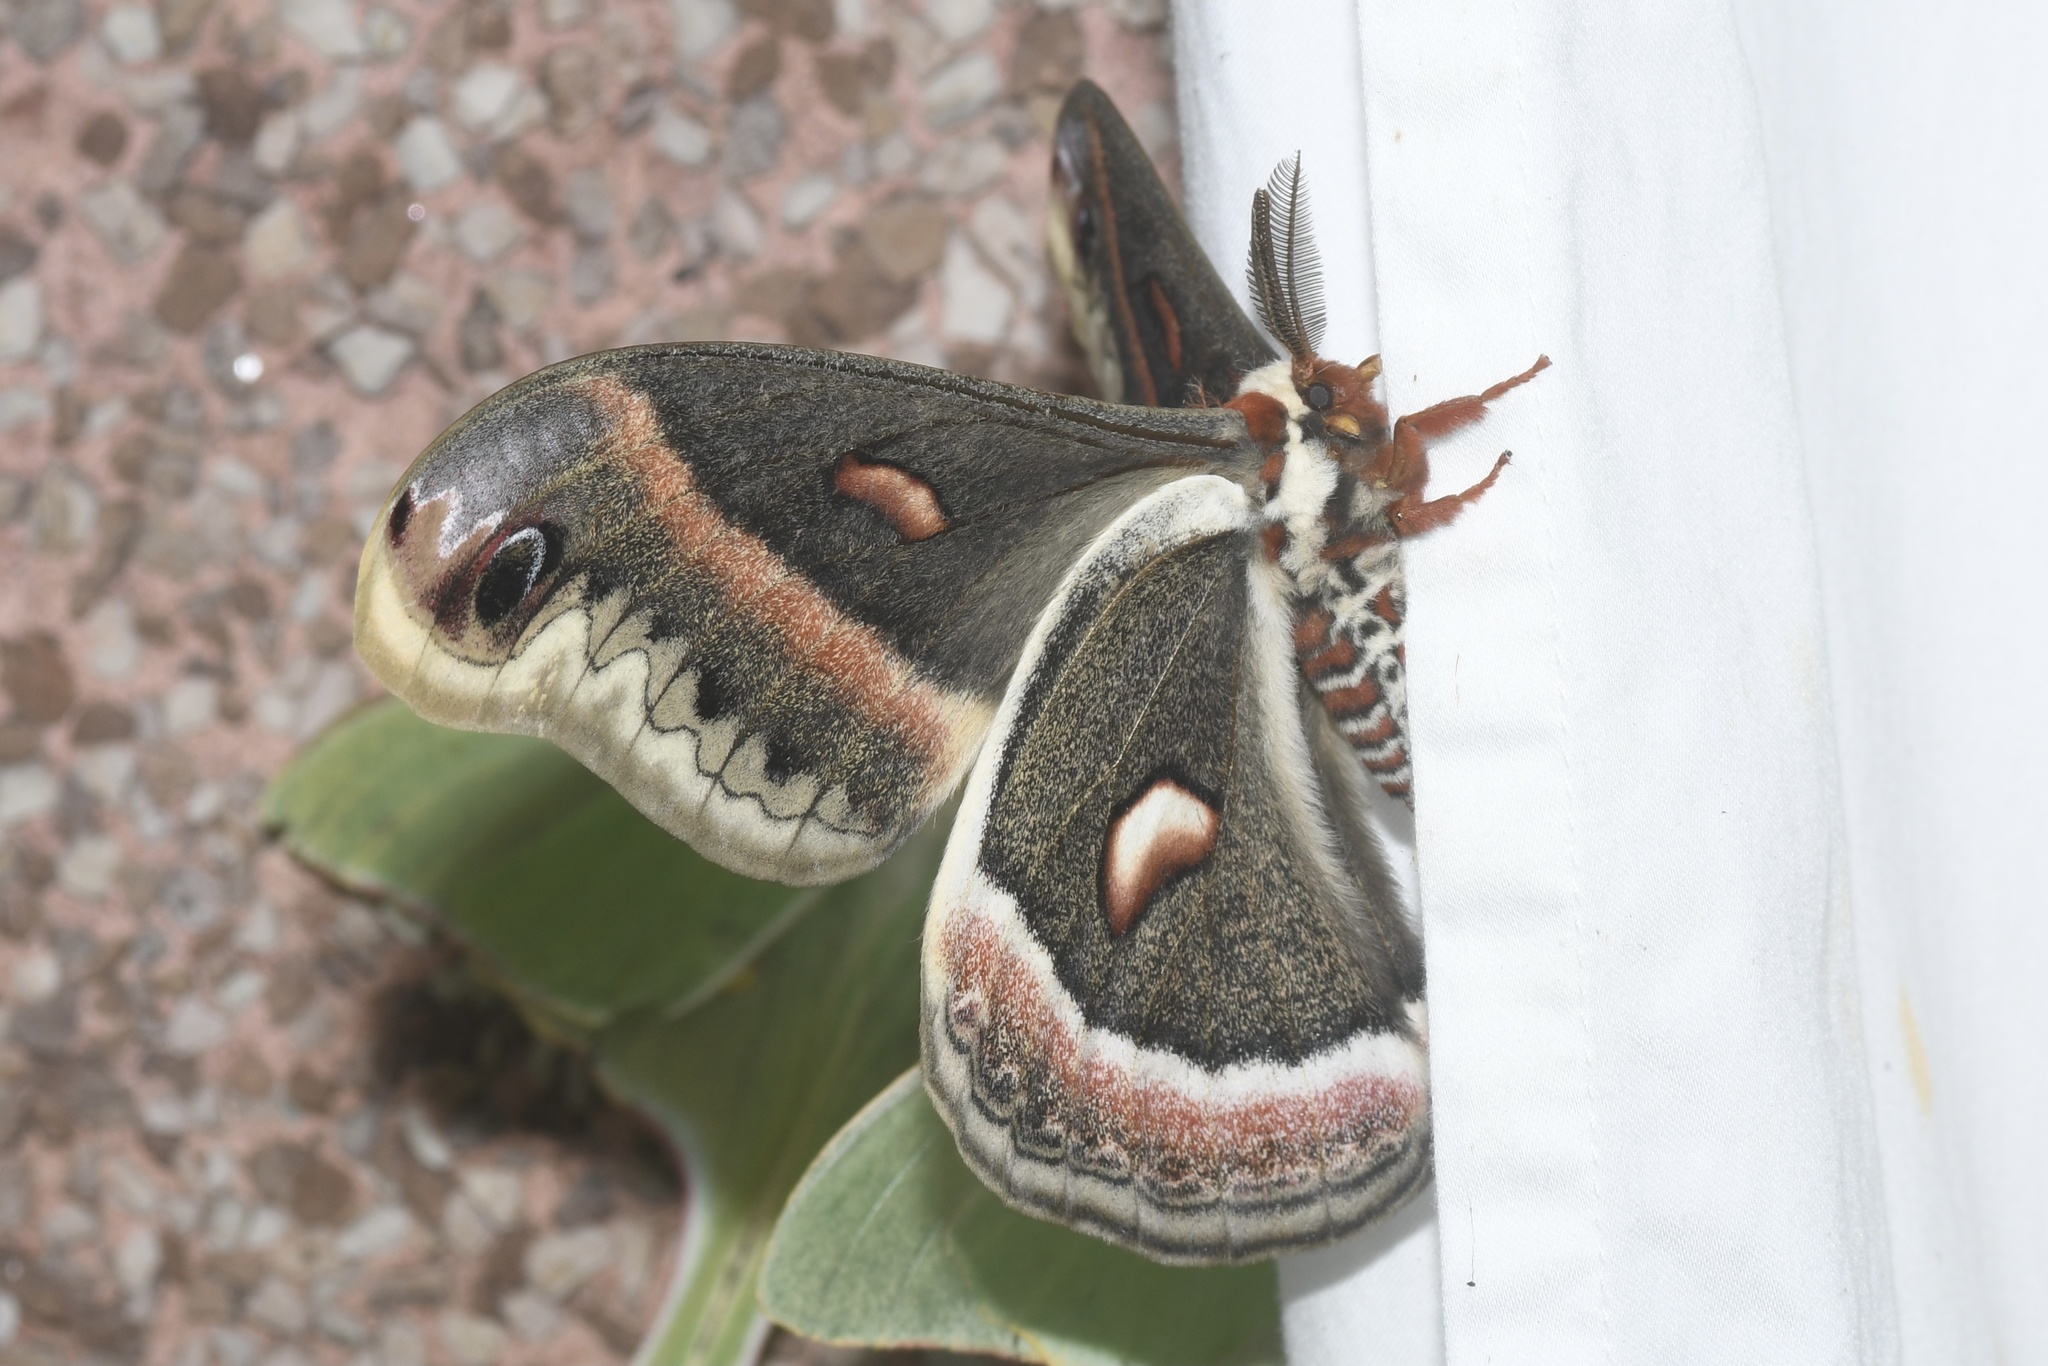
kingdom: Animalia
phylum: Arthropoda
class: Insecta
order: Lepidoptera
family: Saturniidae
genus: Hyalophora
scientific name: Hyalophora cecropia
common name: Cecropia silkmoth
